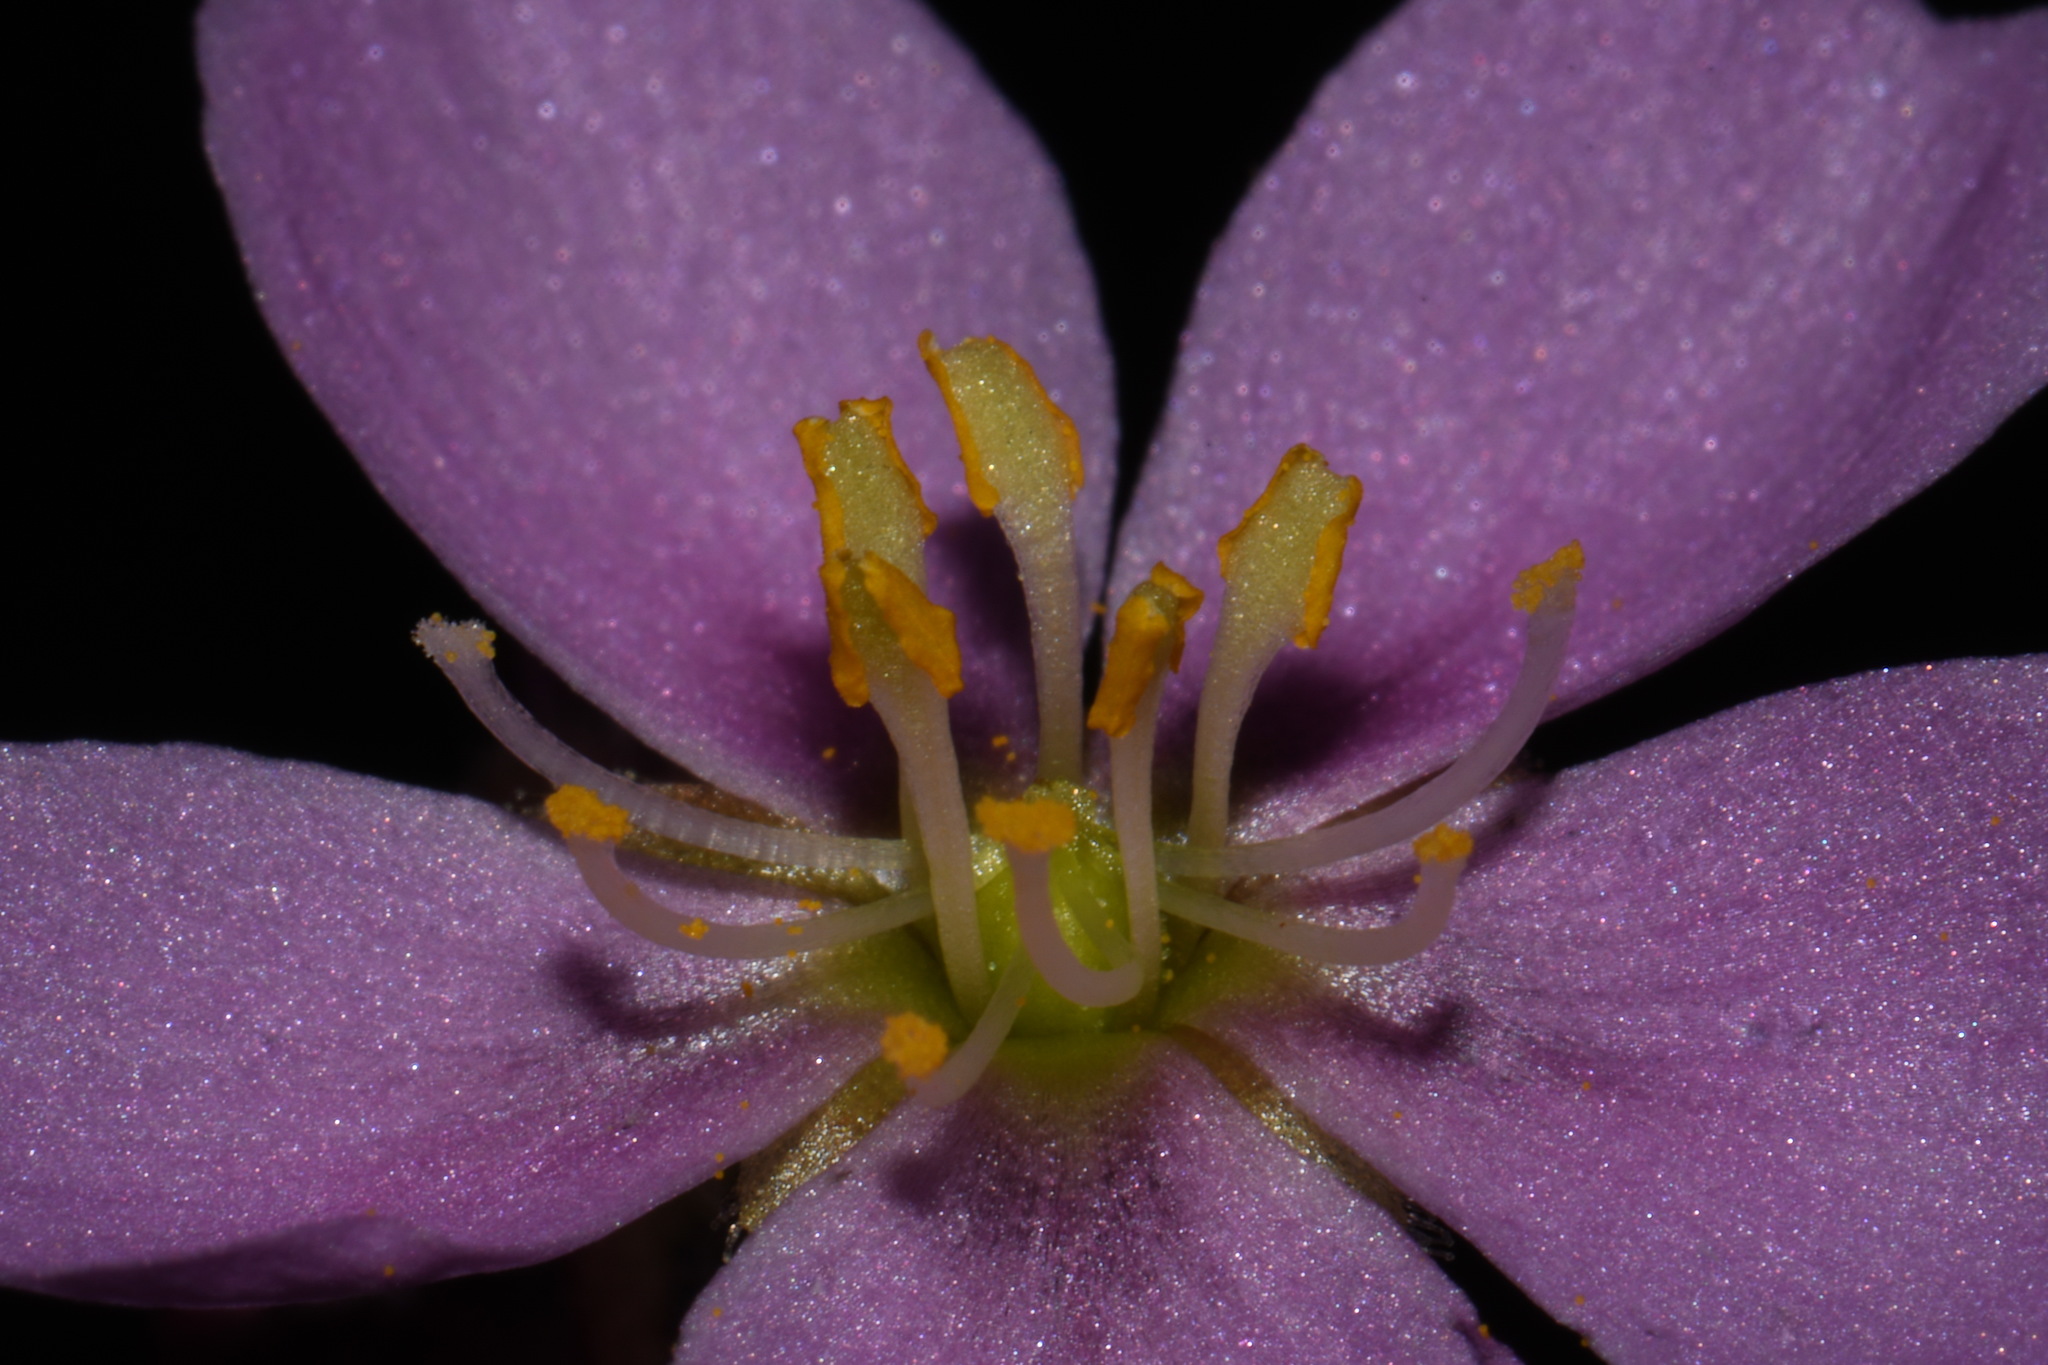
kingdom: Plantae
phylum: Tracheophyta
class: Magnoliopsida
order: Caryophyllales
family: Droseraceae
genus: Drosera
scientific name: Drosera filiformis
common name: Dew-thread
